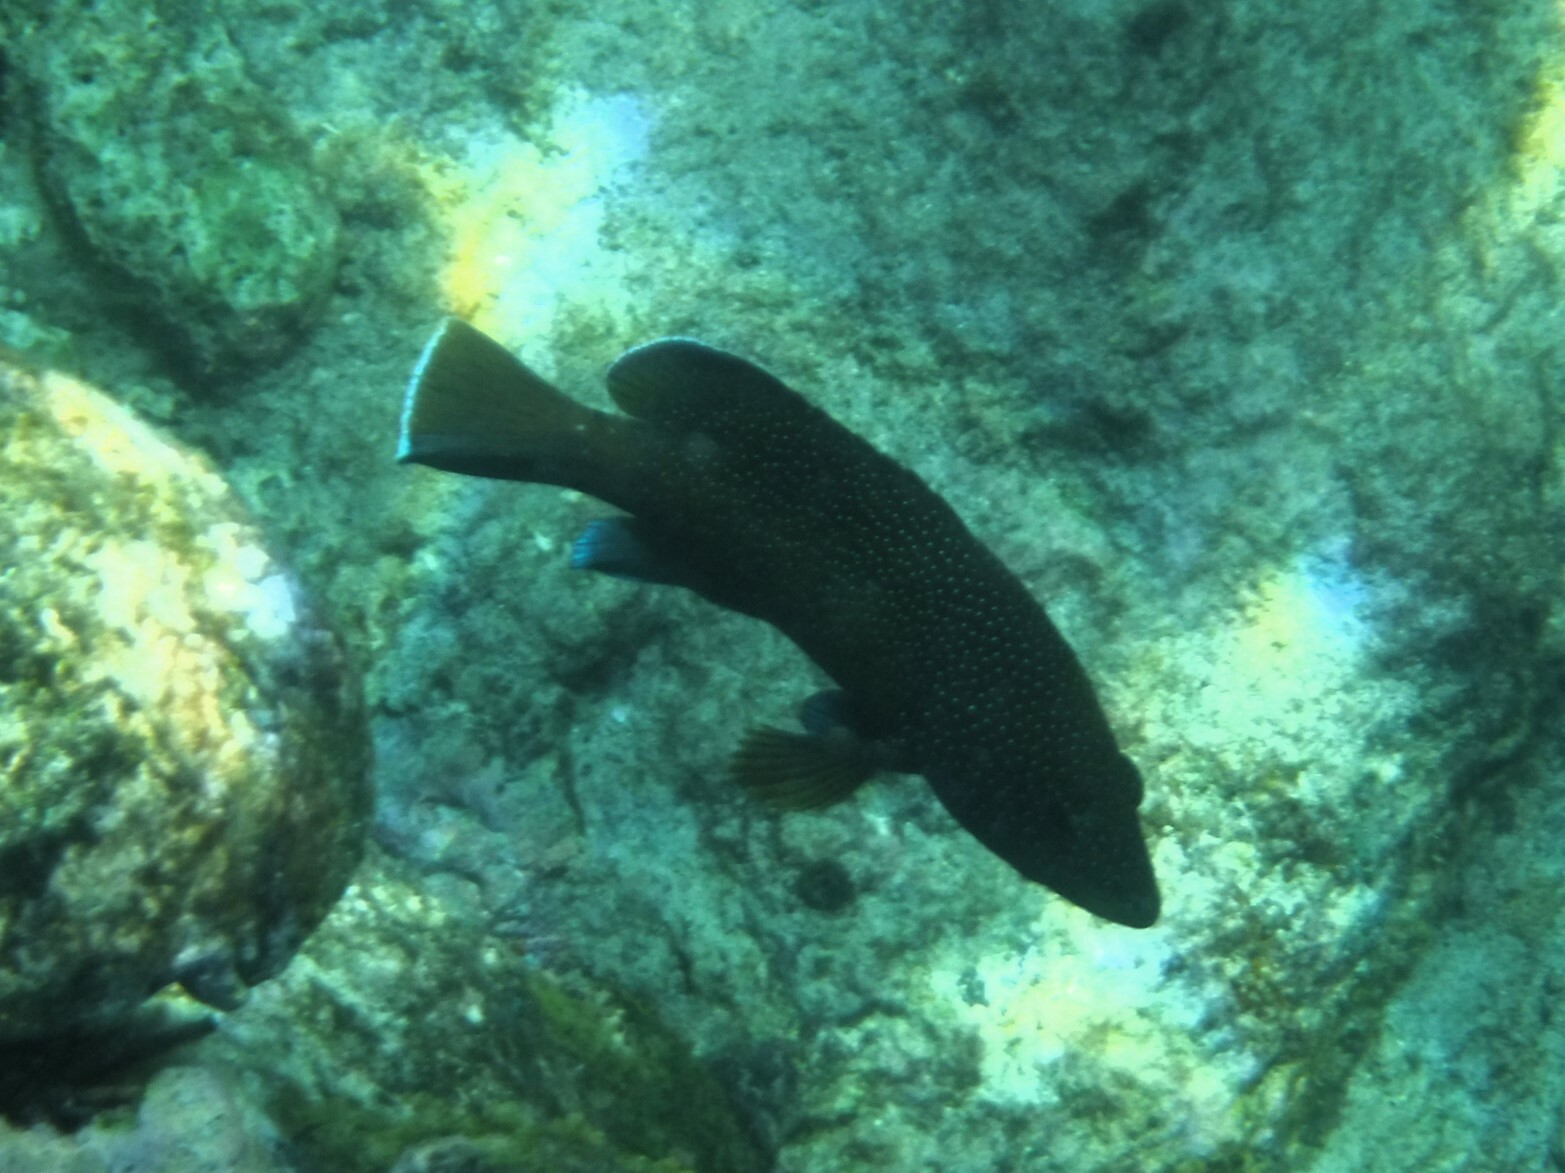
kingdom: Animalia
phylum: Chordata
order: Perciformes
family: Serranidae
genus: Cephalopholis
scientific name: Cephalopholis fulva
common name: Butterfish
